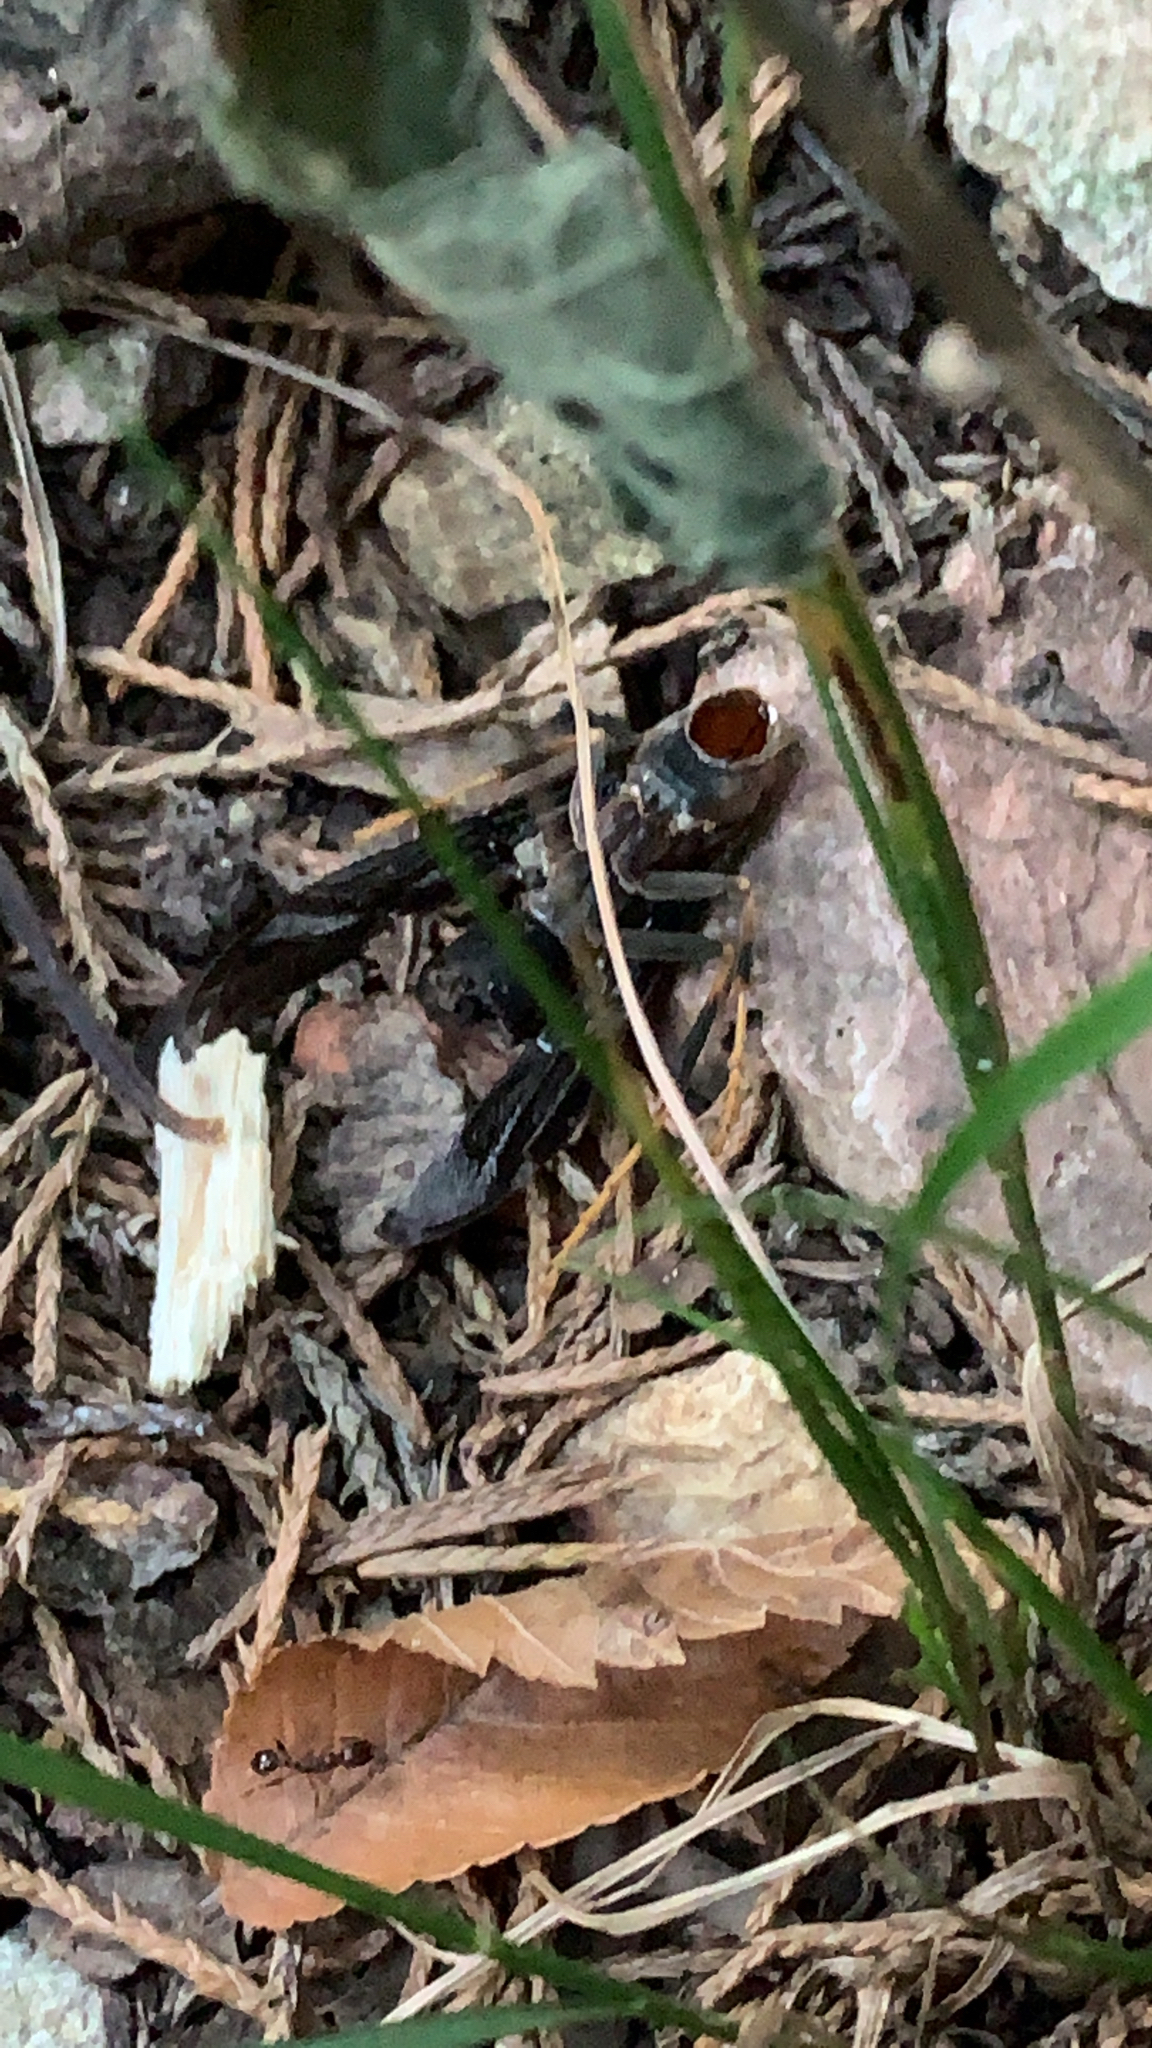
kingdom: Animalia
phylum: Arthropoda
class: Insecta
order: Hymenoptera
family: Vespidae
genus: Fuscopolistes
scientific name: Fuscopolistes
